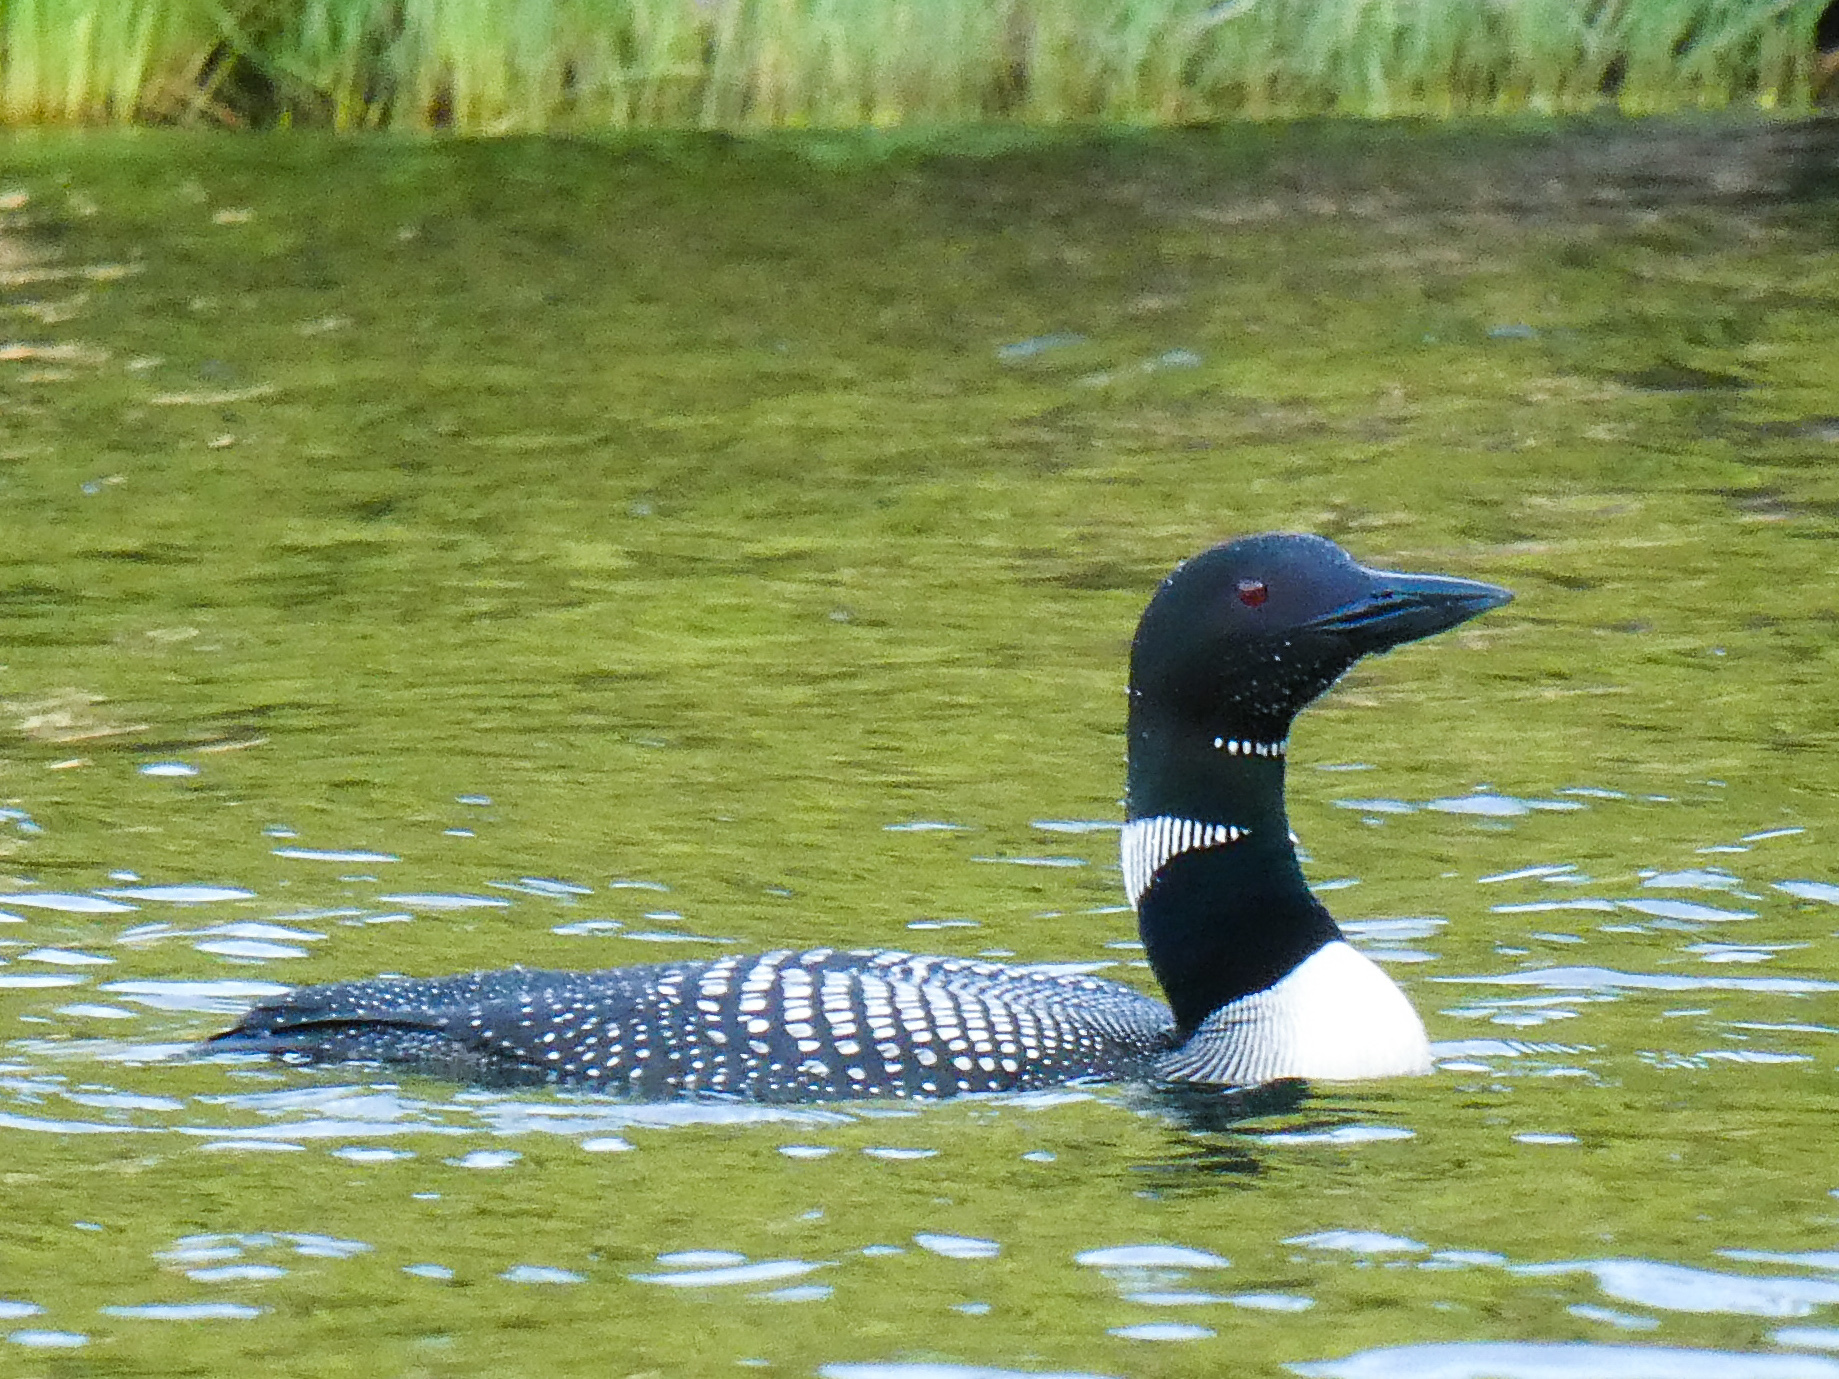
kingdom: Animalia
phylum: Chordata
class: Aves
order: Gaviiformes
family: Gaviidae
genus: Gavia
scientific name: Gavia immer
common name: Common loon
